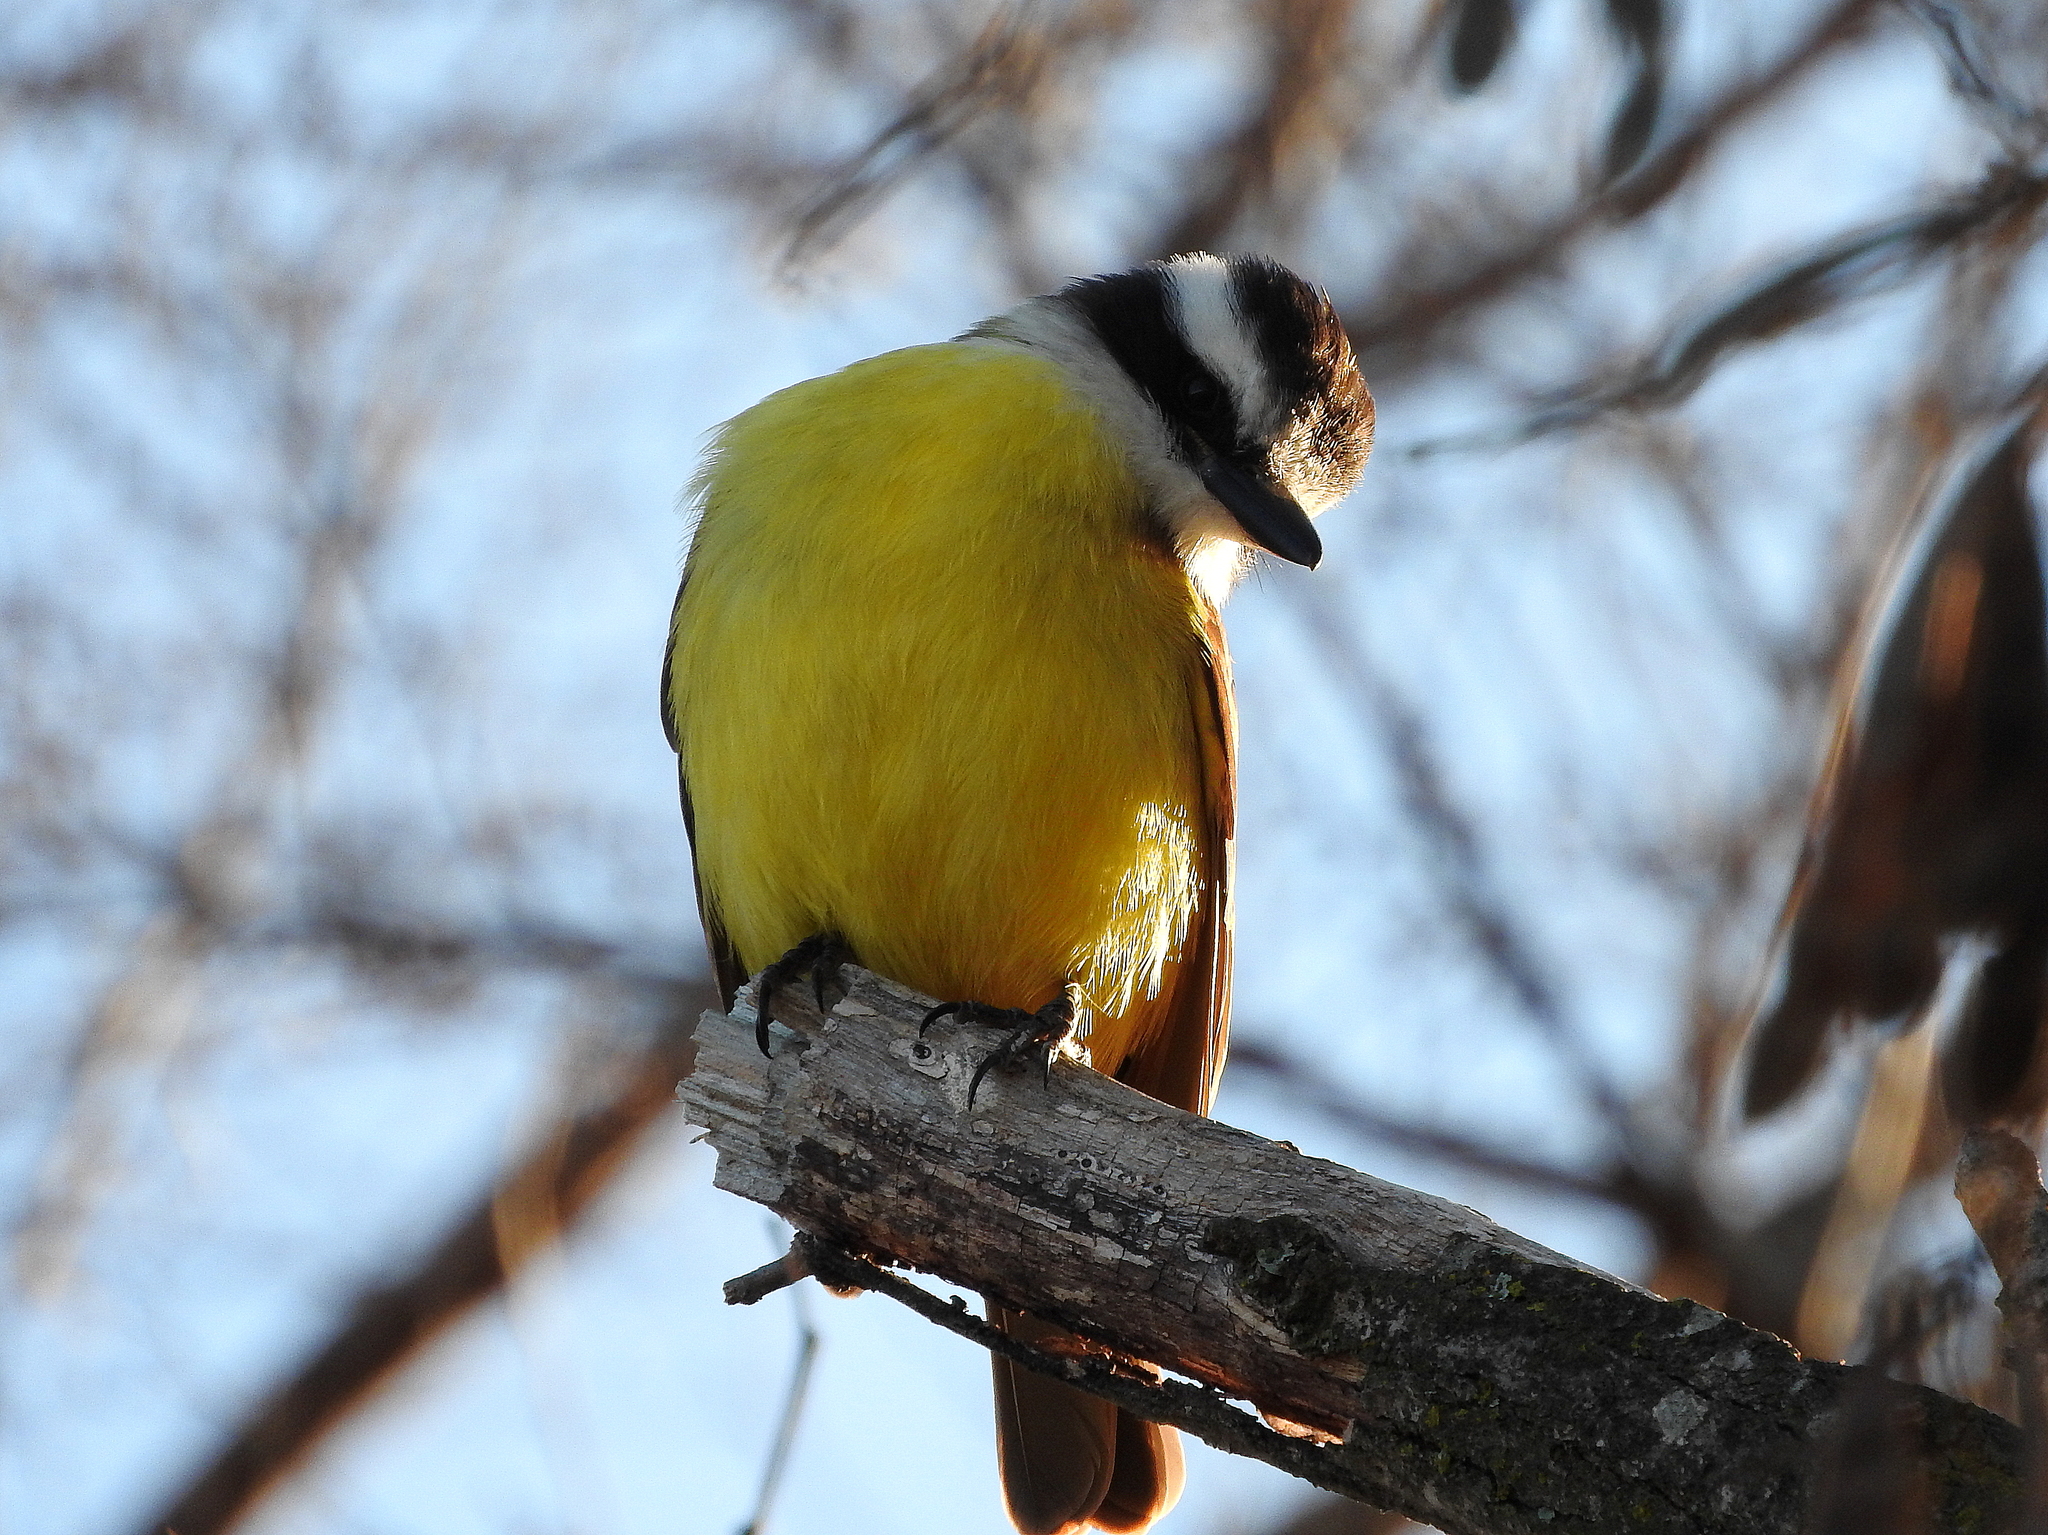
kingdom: Animalia
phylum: Chordata
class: Aves
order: Passeriformes
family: Tyrannidae
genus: Pitangus
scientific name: Pitangus sulphuratus
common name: Great kiskadee
